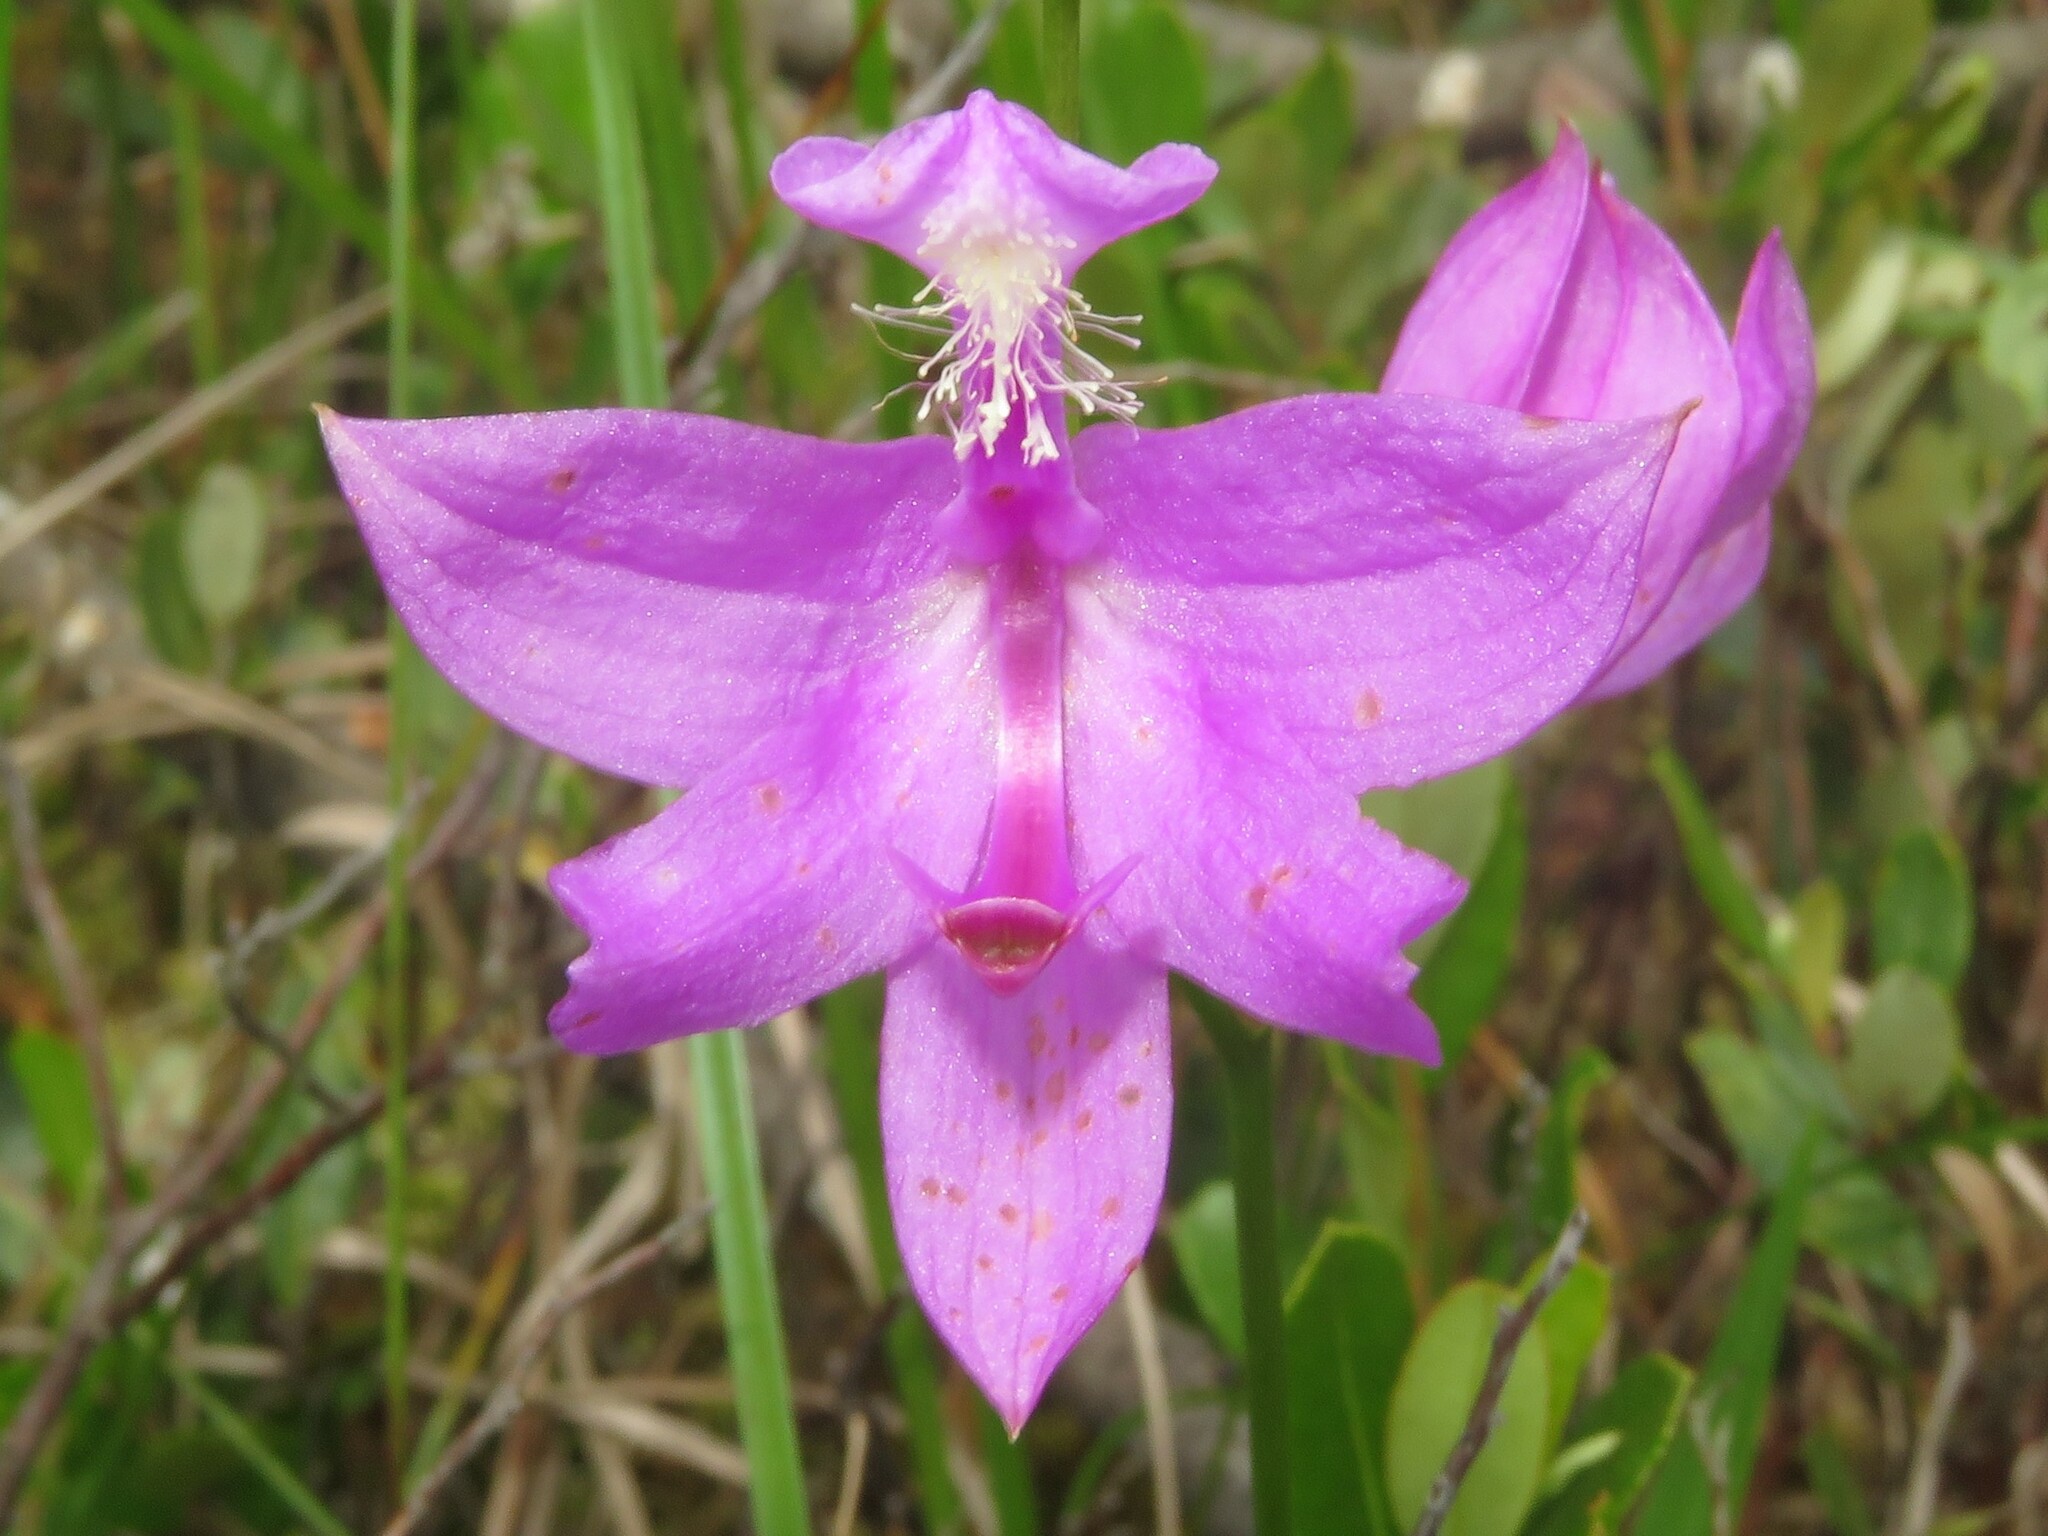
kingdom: Plantae
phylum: Tracheophyta
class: Liliopsida
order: Asparagales
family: Orchidaceae
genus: Calopogon
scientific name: Calopogon tuberosus
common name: Grass-pink
